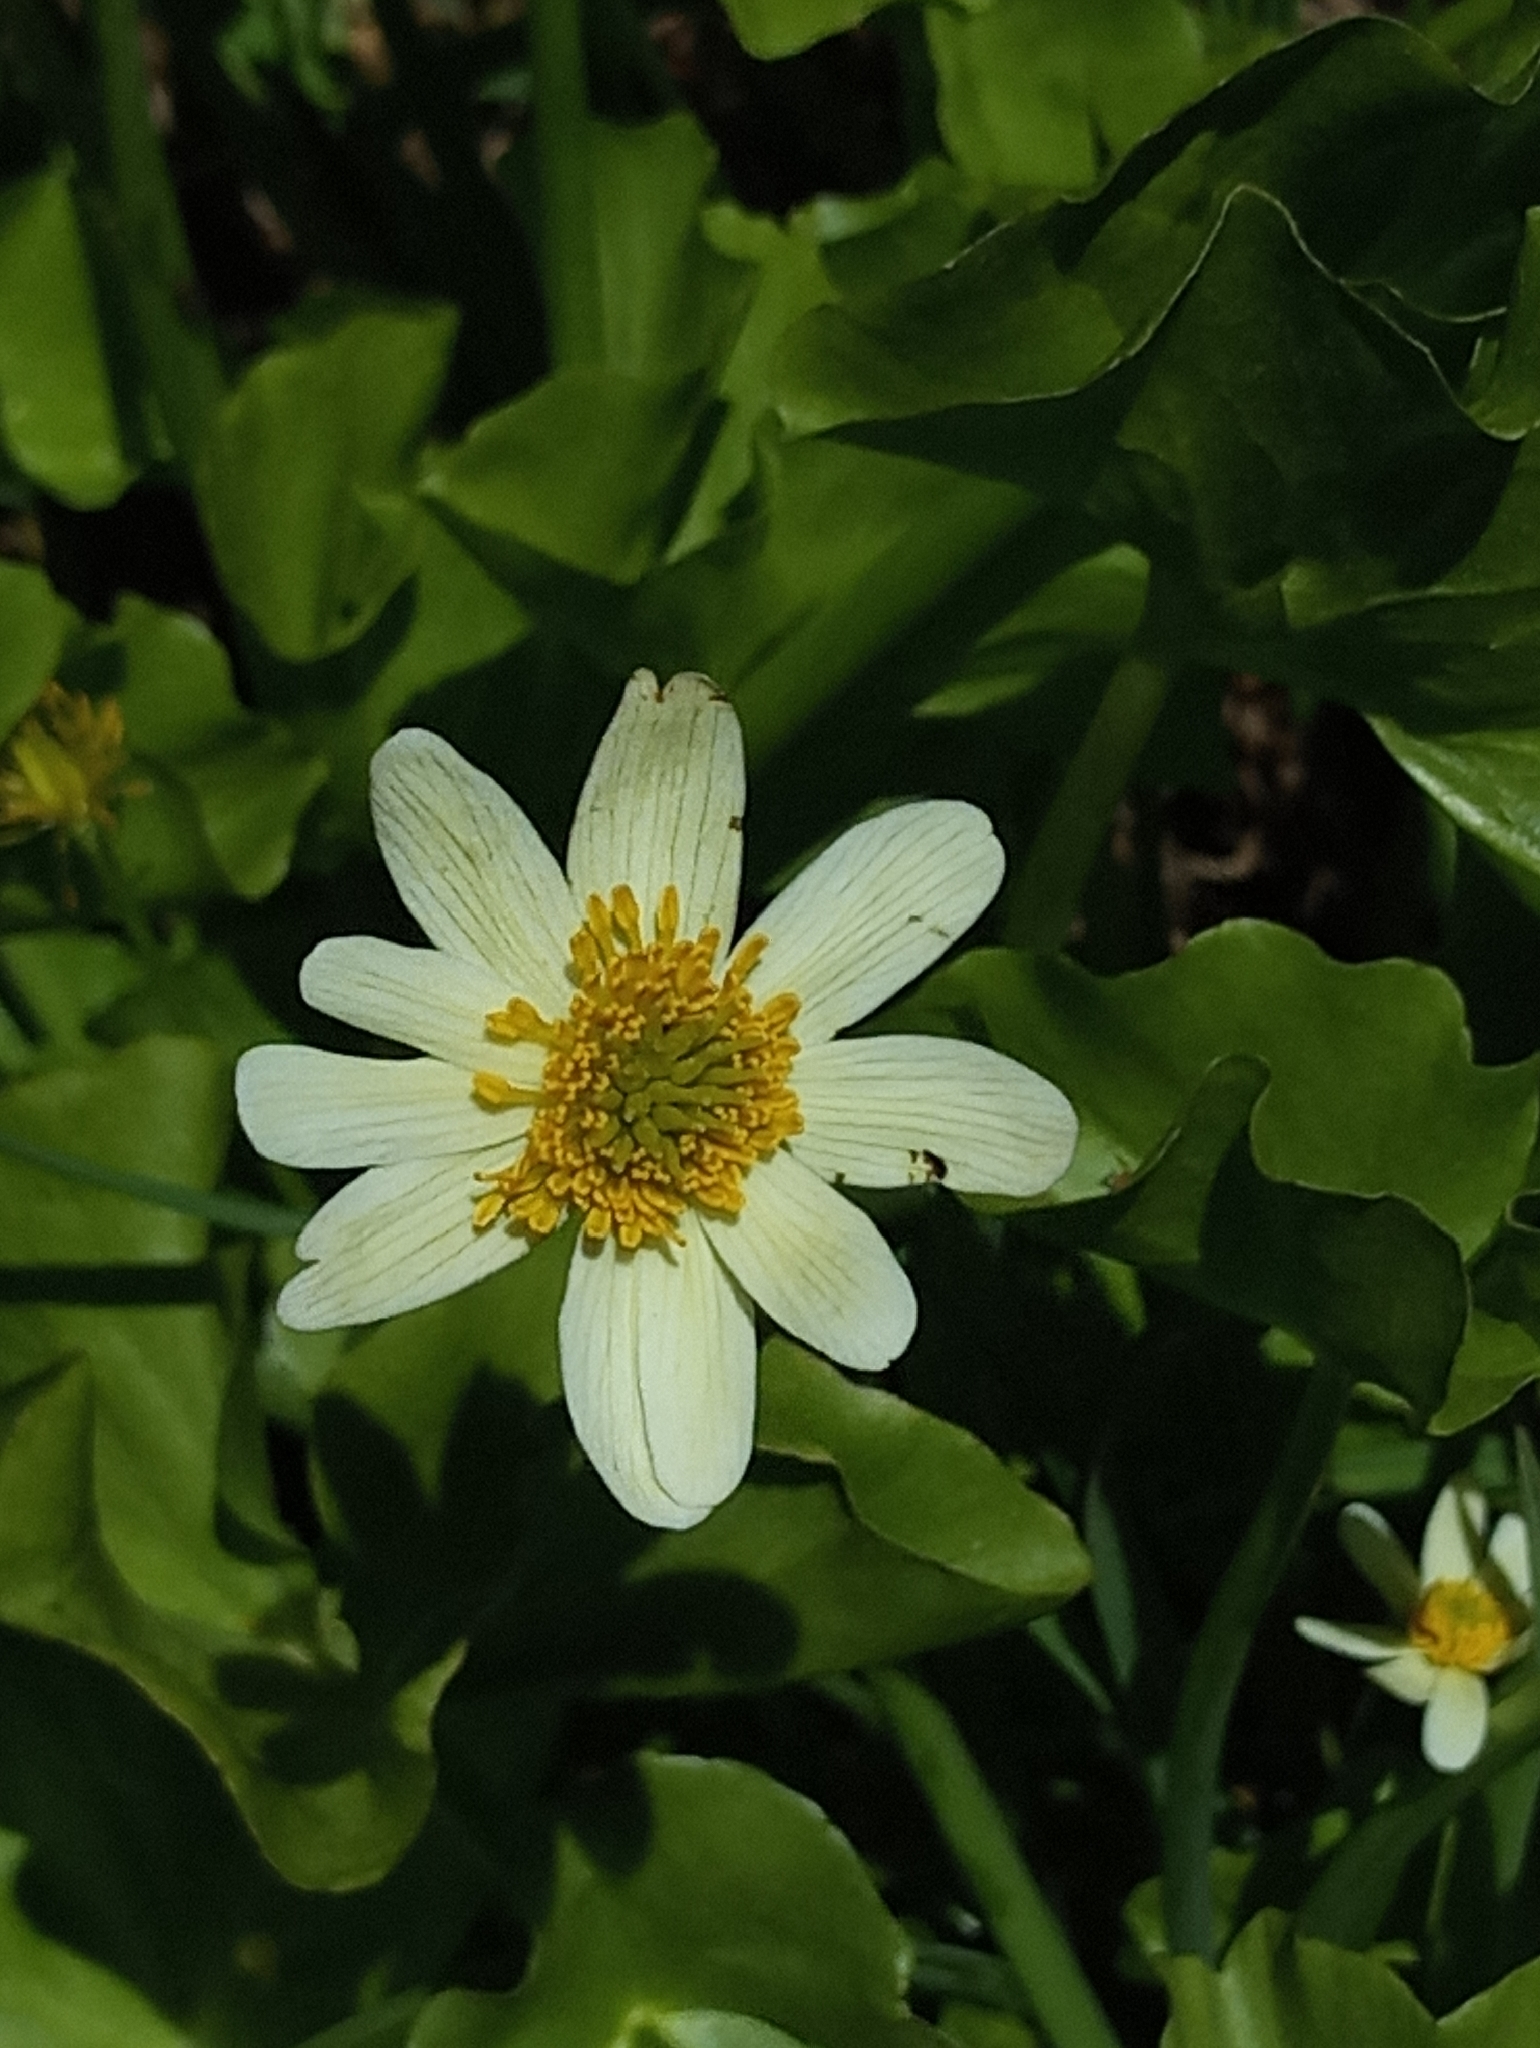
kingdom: Plantae
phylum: Tracheophyta
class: Magnoliopsida
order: Ranunculales
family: Ranunculaceae
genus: Caltha
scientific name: Caltha leptosepala
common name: Elkslip
